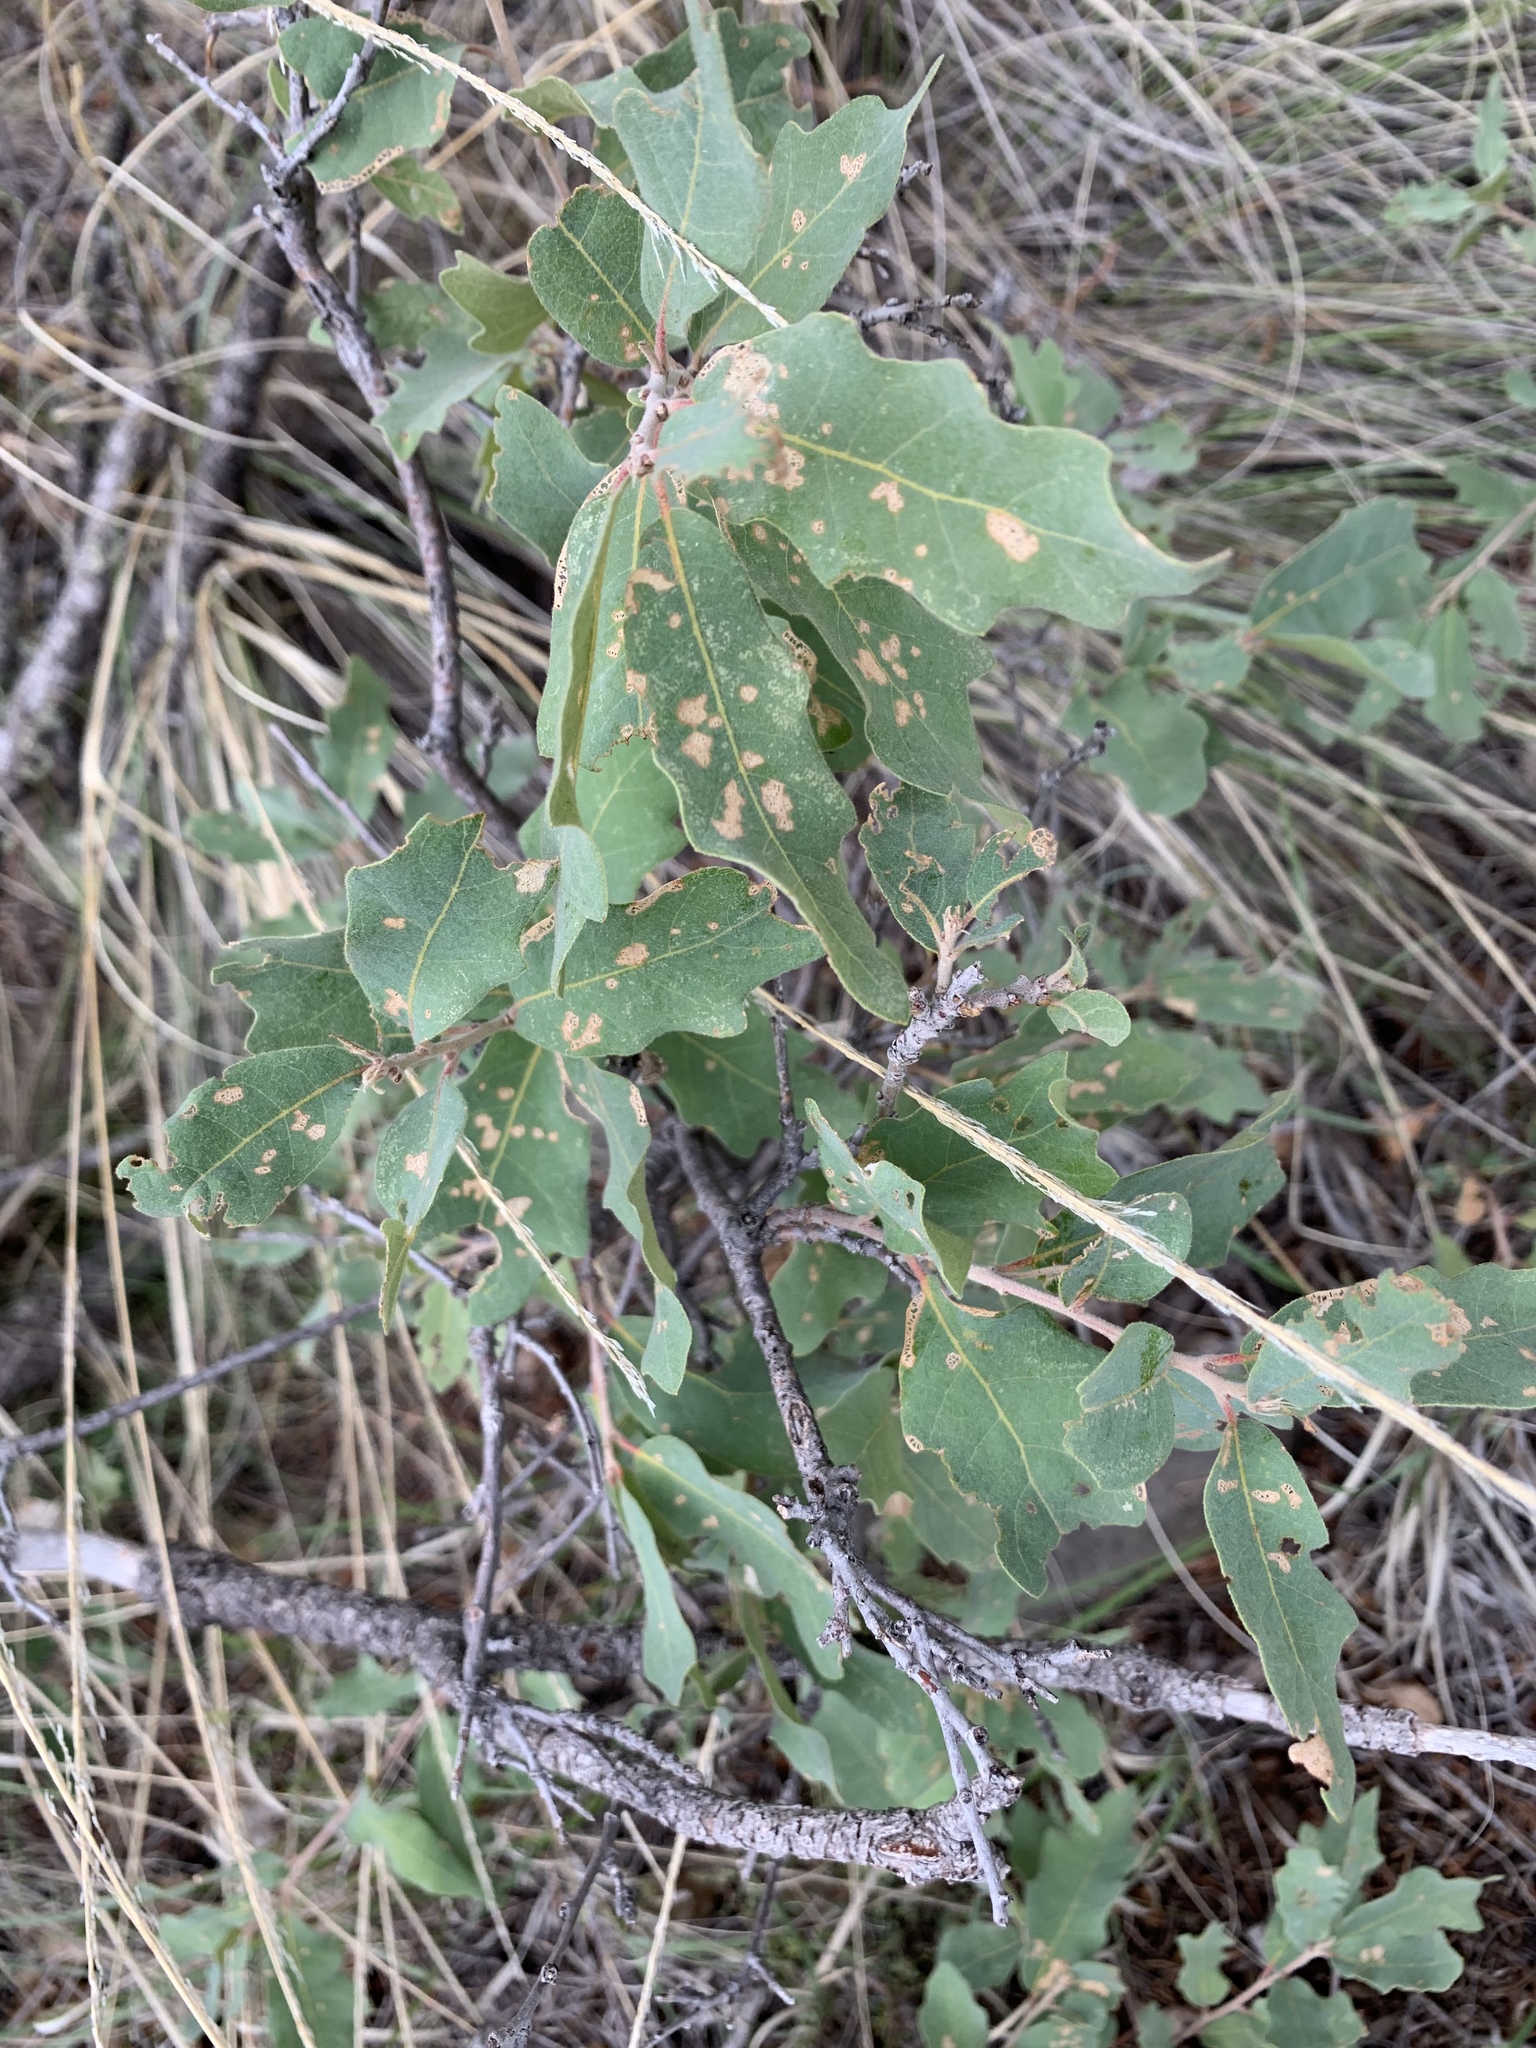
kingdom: Plantae
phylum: Tracheophyta
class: Magnoliopsida
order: Fagales
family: Fagaceae
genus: Quercus
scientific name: Quercus undulata
